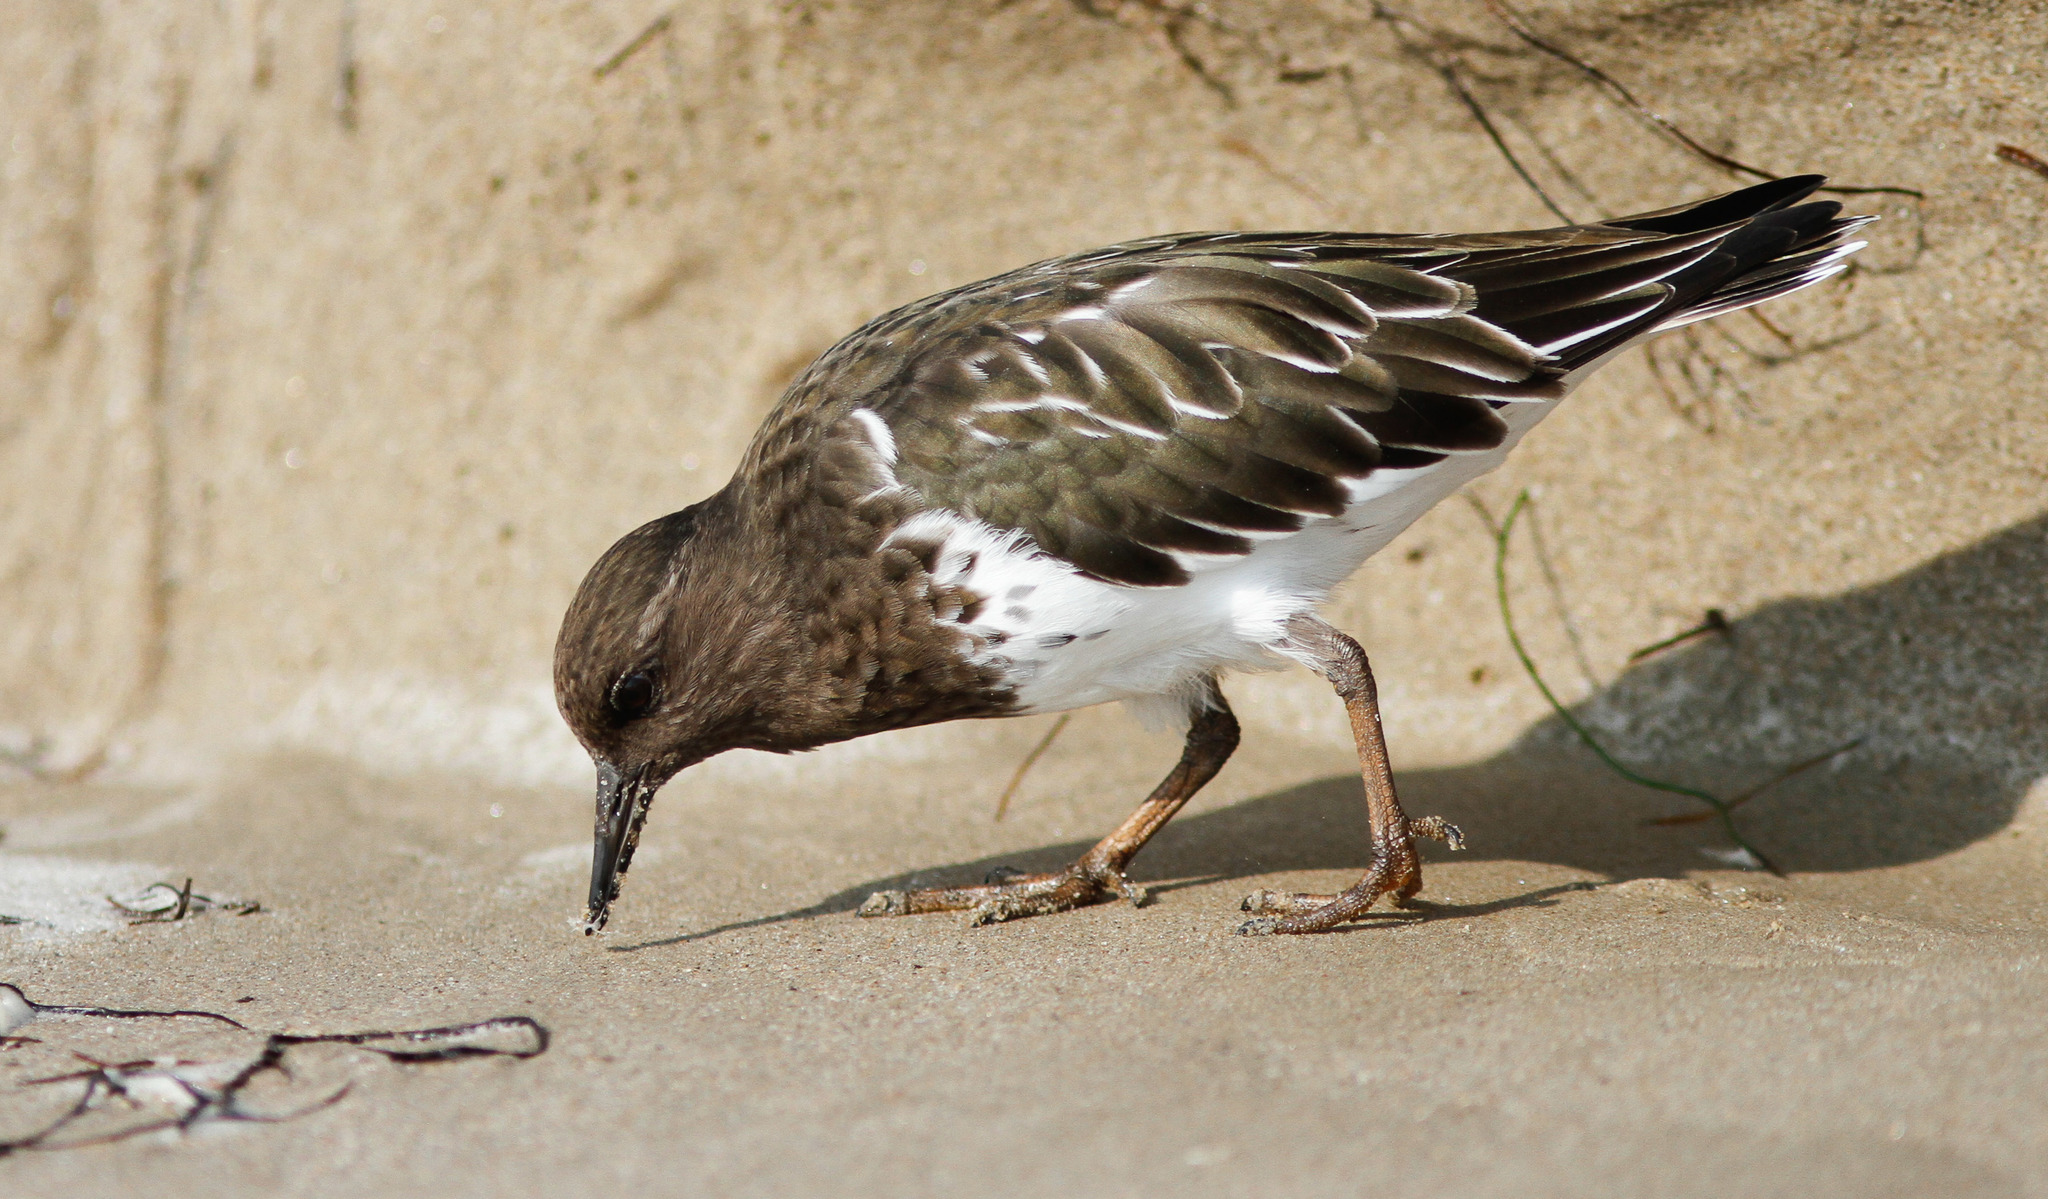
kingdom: Animalia
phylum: Chordata
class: Aves
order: Charadriiformes
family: Scolopacidae
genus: Arenaria
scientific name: Arenaria melanocephala
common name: Black turnstone
